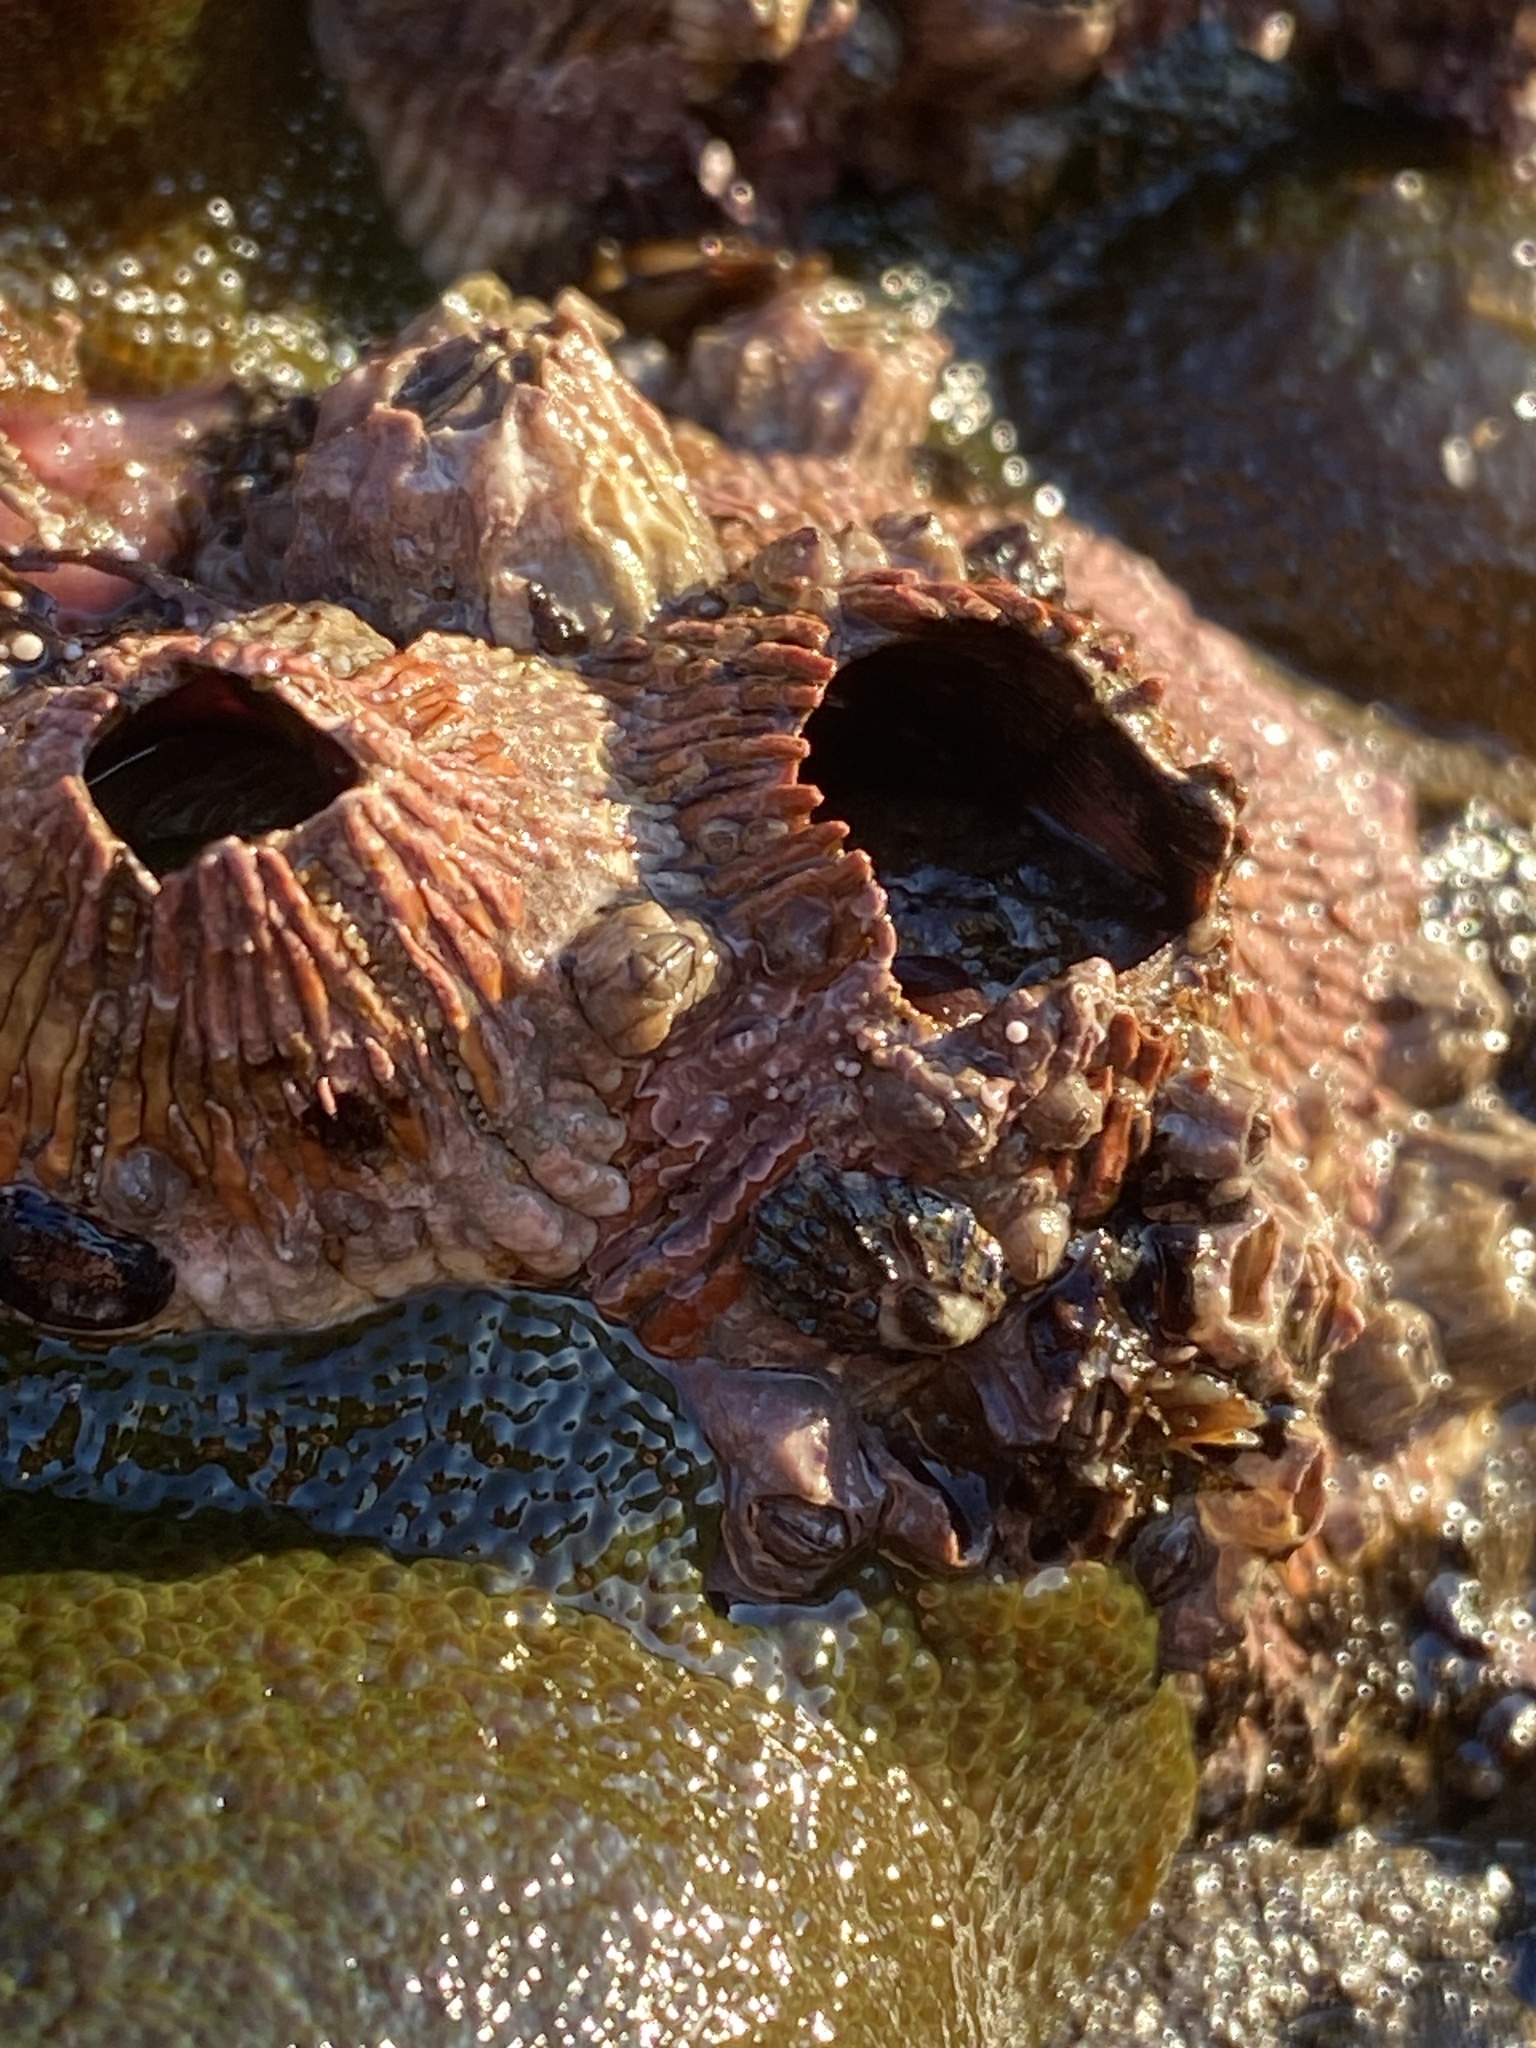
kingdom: Animalia
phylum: Arthropoda
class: Maxillopoda
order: Sessilia
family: Tetraclitidae
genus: Tetraclita
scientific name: Tetraclita rubescens
